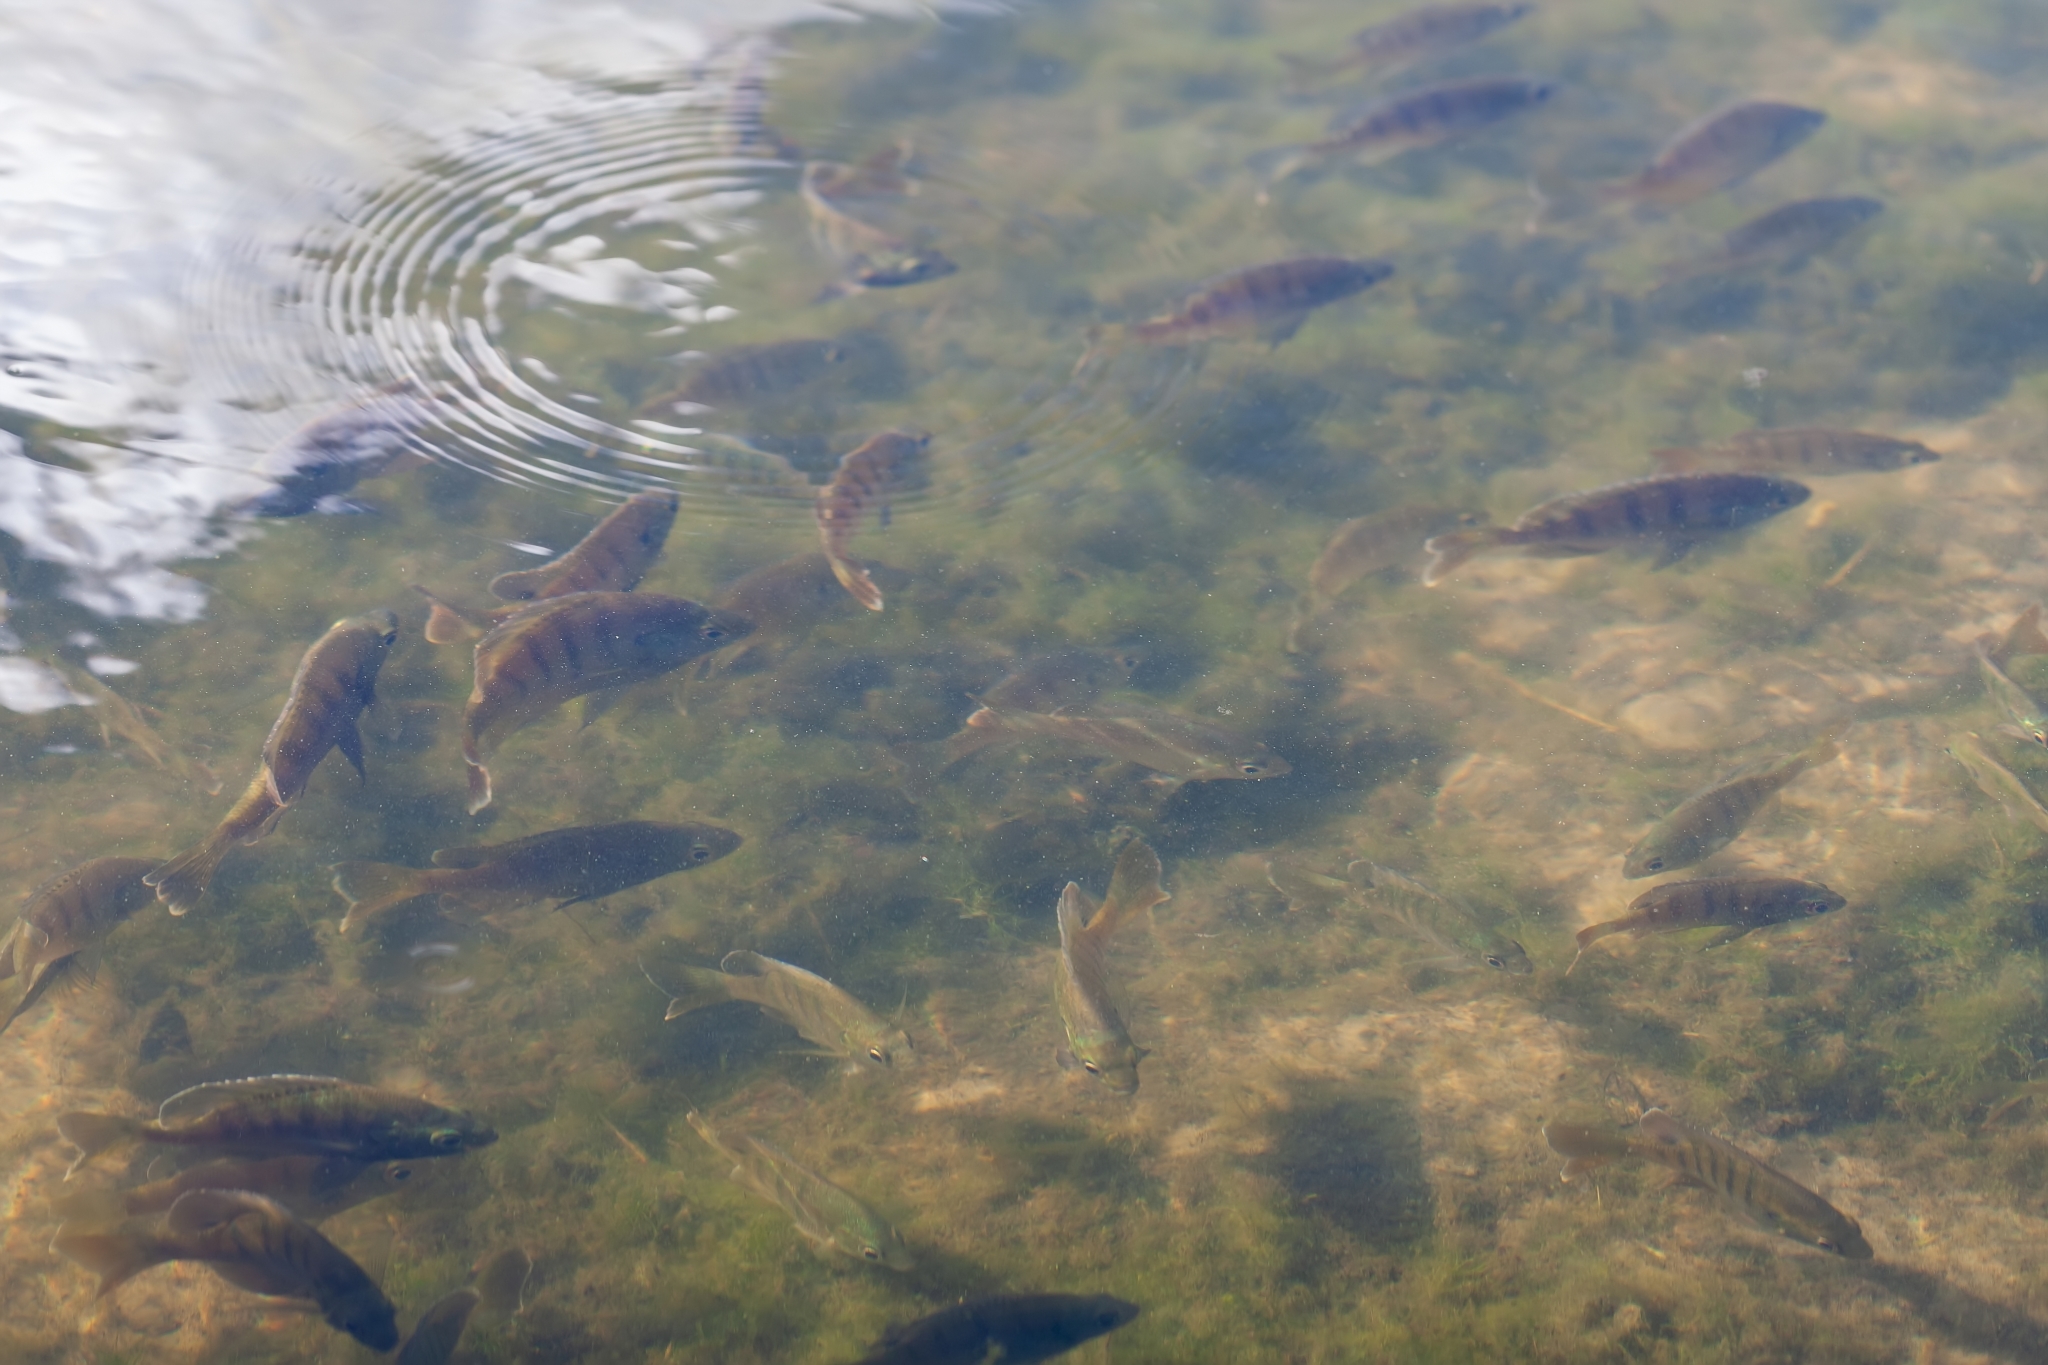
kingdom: Animalia
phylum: Chordata
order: Perciformes
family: Centrarchidae
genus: Lepomis
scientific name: Lepomis macrochirus
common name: Bluegill
